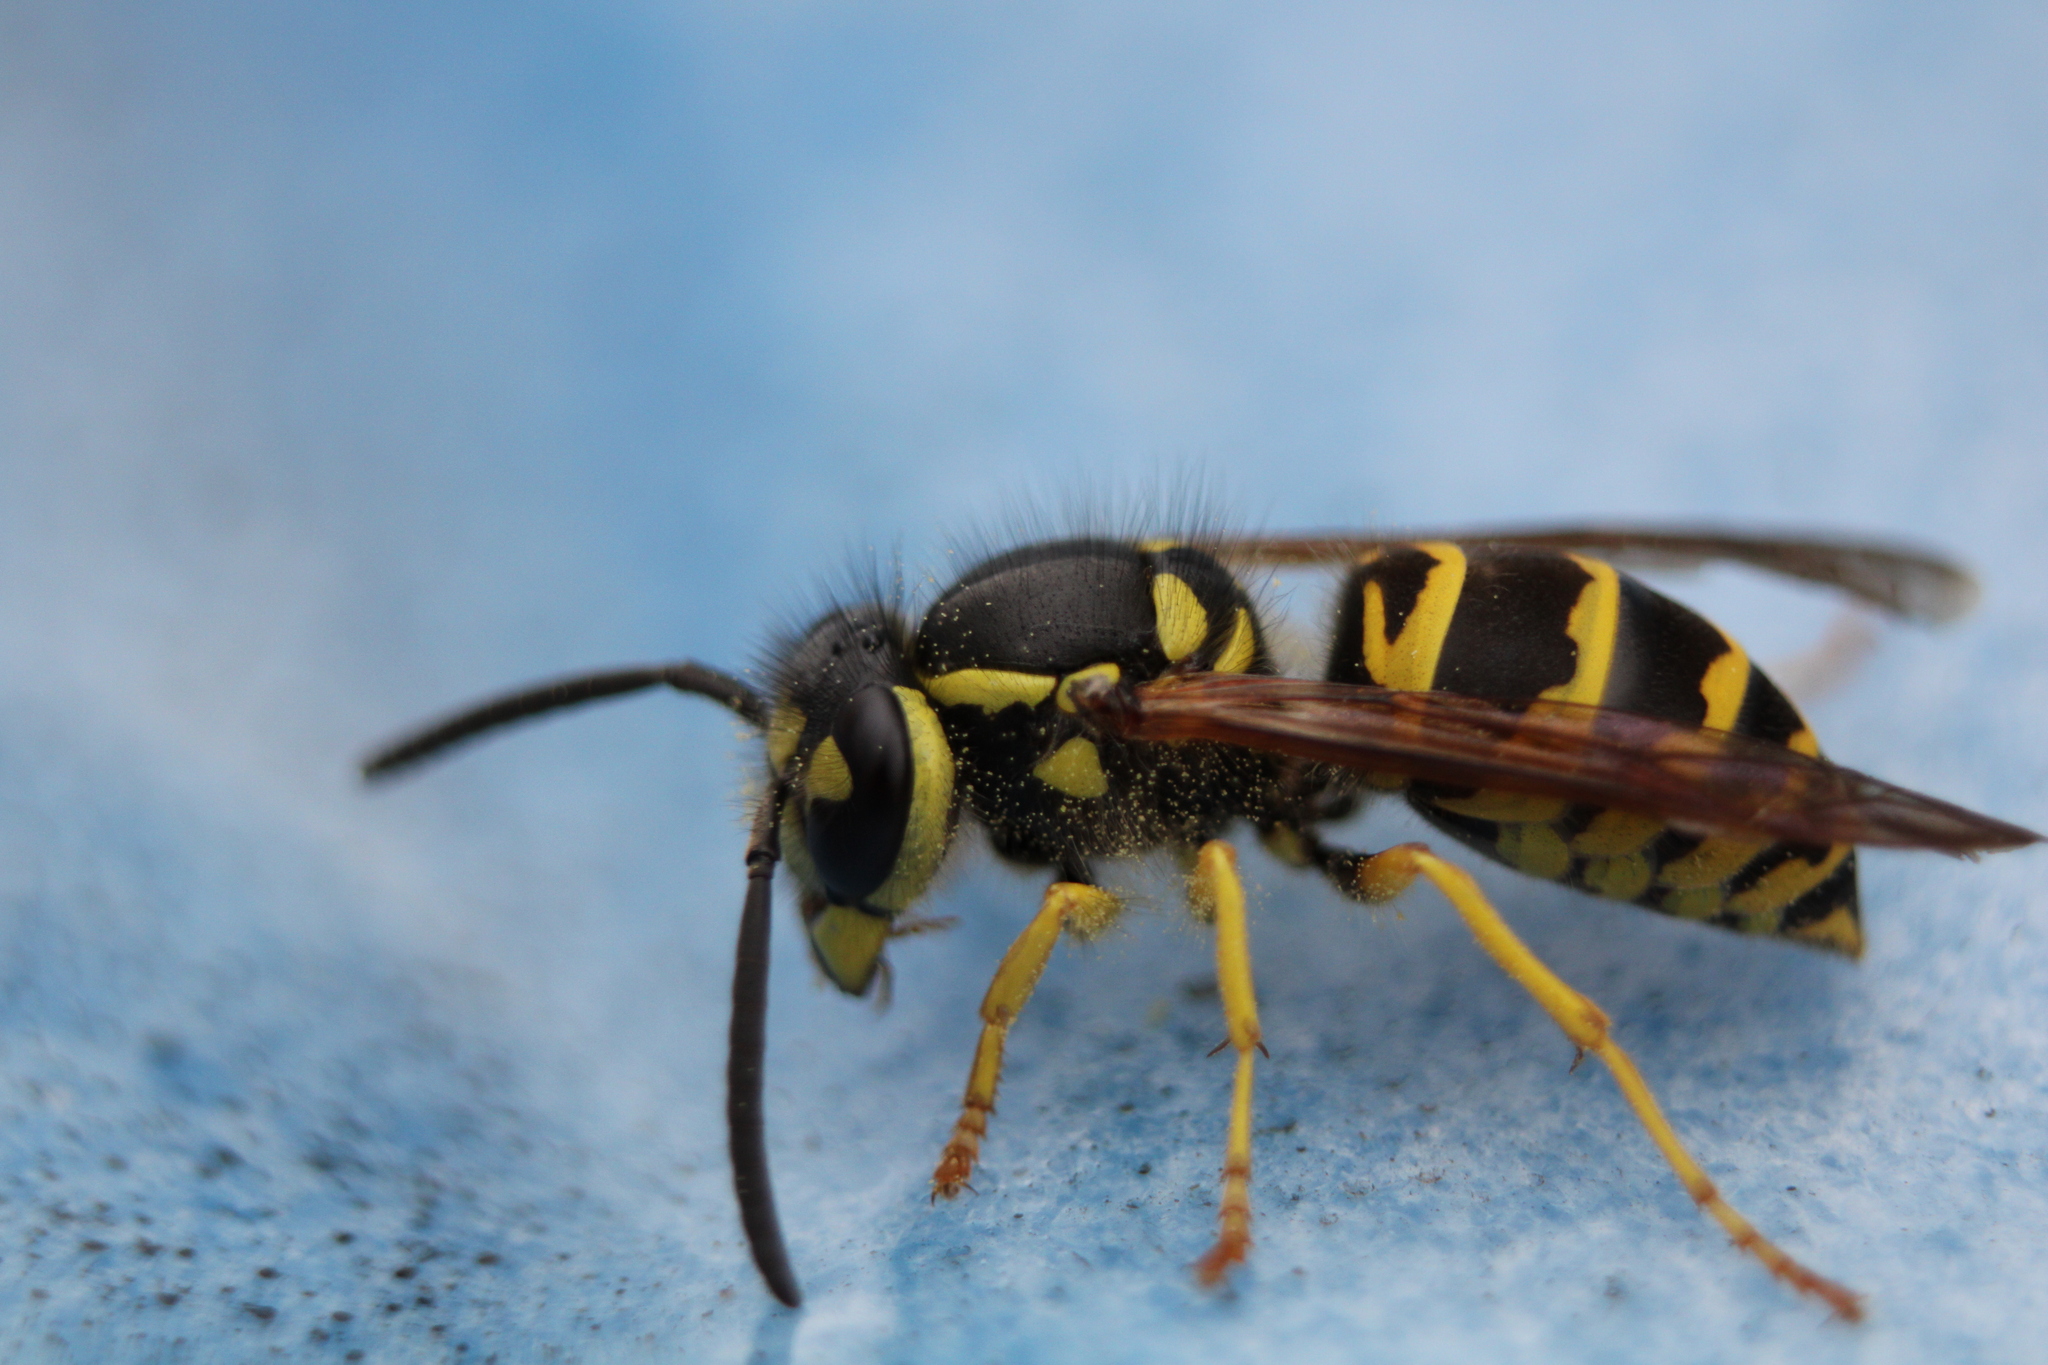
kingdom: Animalia
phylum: Arthropoda
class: Insecta
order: Hymenoptera
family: Vespidae
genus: Vespula
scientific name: Vespula maculifrons
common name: Eastern yellowjacket
